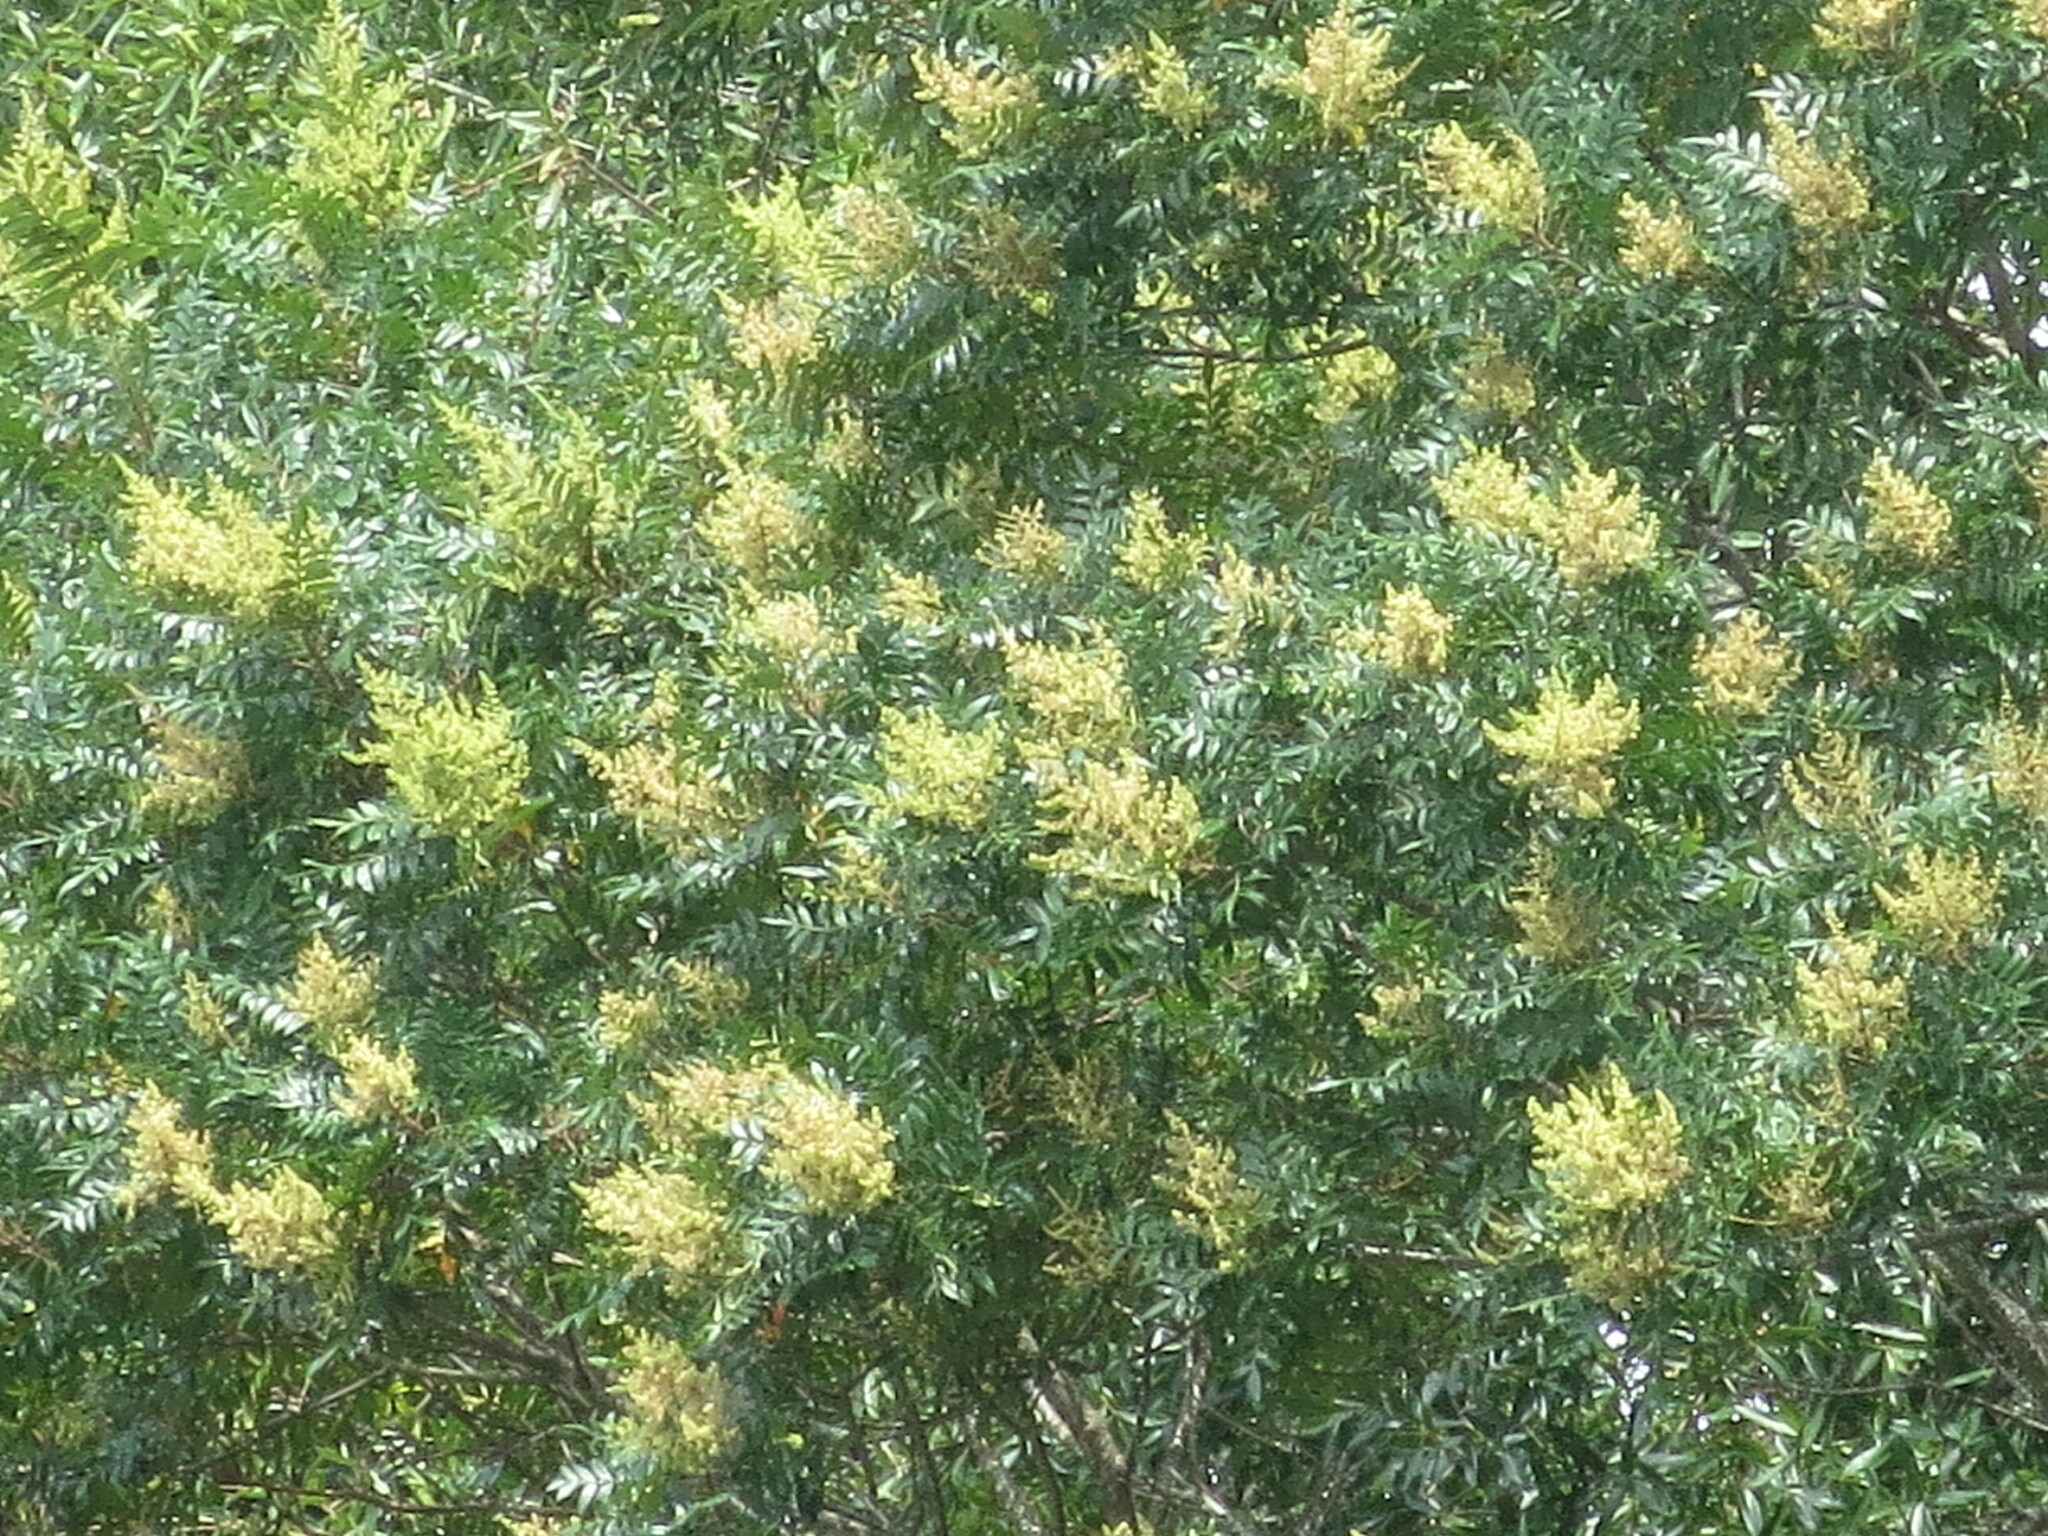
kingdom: Plantae
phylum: Tracheophyta
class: Magnoliopsida
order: Sapindales
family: Anacardiaceae
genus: Rhus
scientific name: Rhus copallina
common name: Shining sumac
